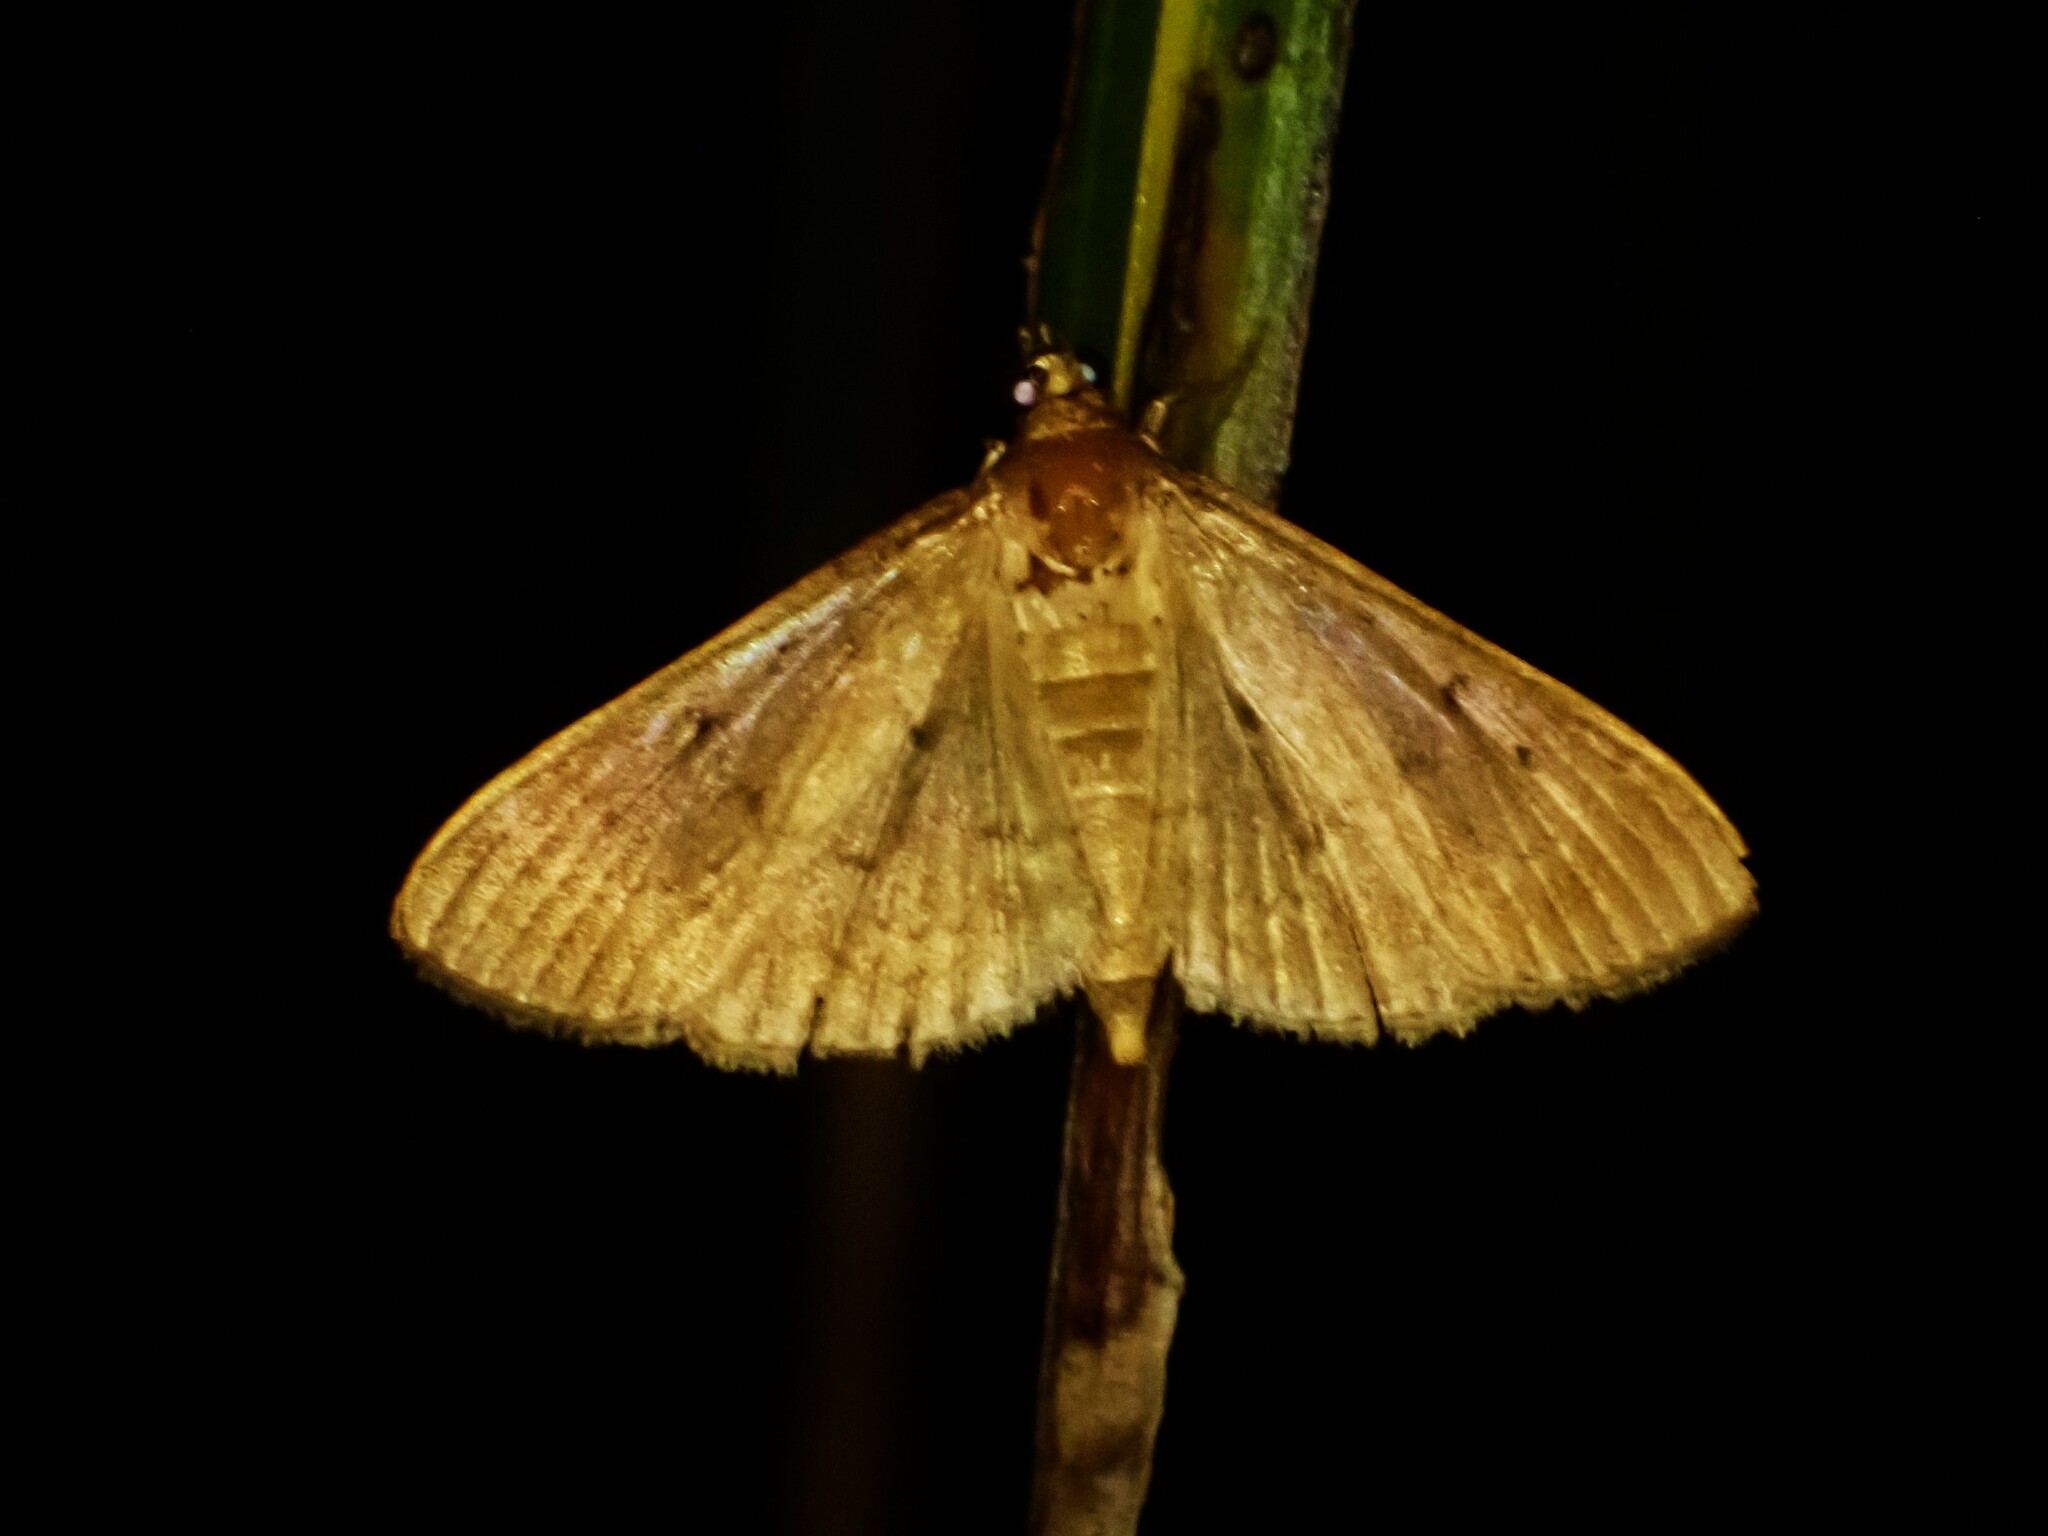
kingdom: Animalia
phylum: Arthropoda
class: Insecta
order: Lepidoptera
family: Crambidae
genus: Herpetogramma
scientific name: Herpetogramma licarsisalis
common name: Grass webworm
